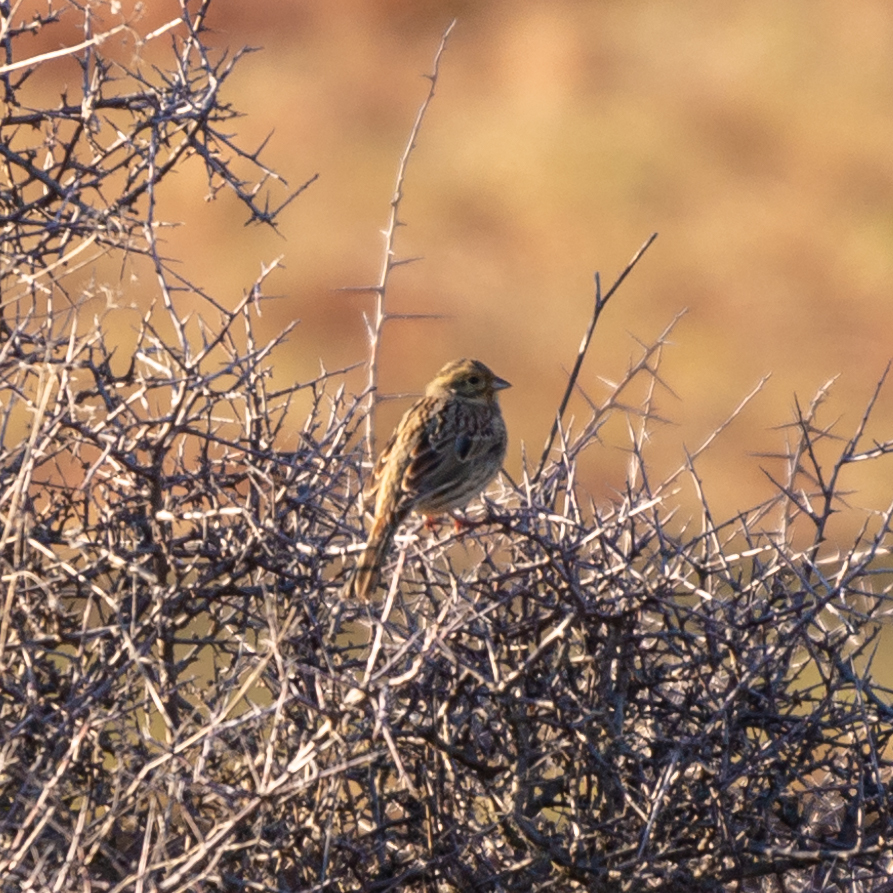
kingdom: Animalia
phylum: Chordata
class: Aves
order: Passeriformes
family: Emberizidae
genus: Emberiza
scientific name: Emberiza citrinella
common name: Yellowhammer
